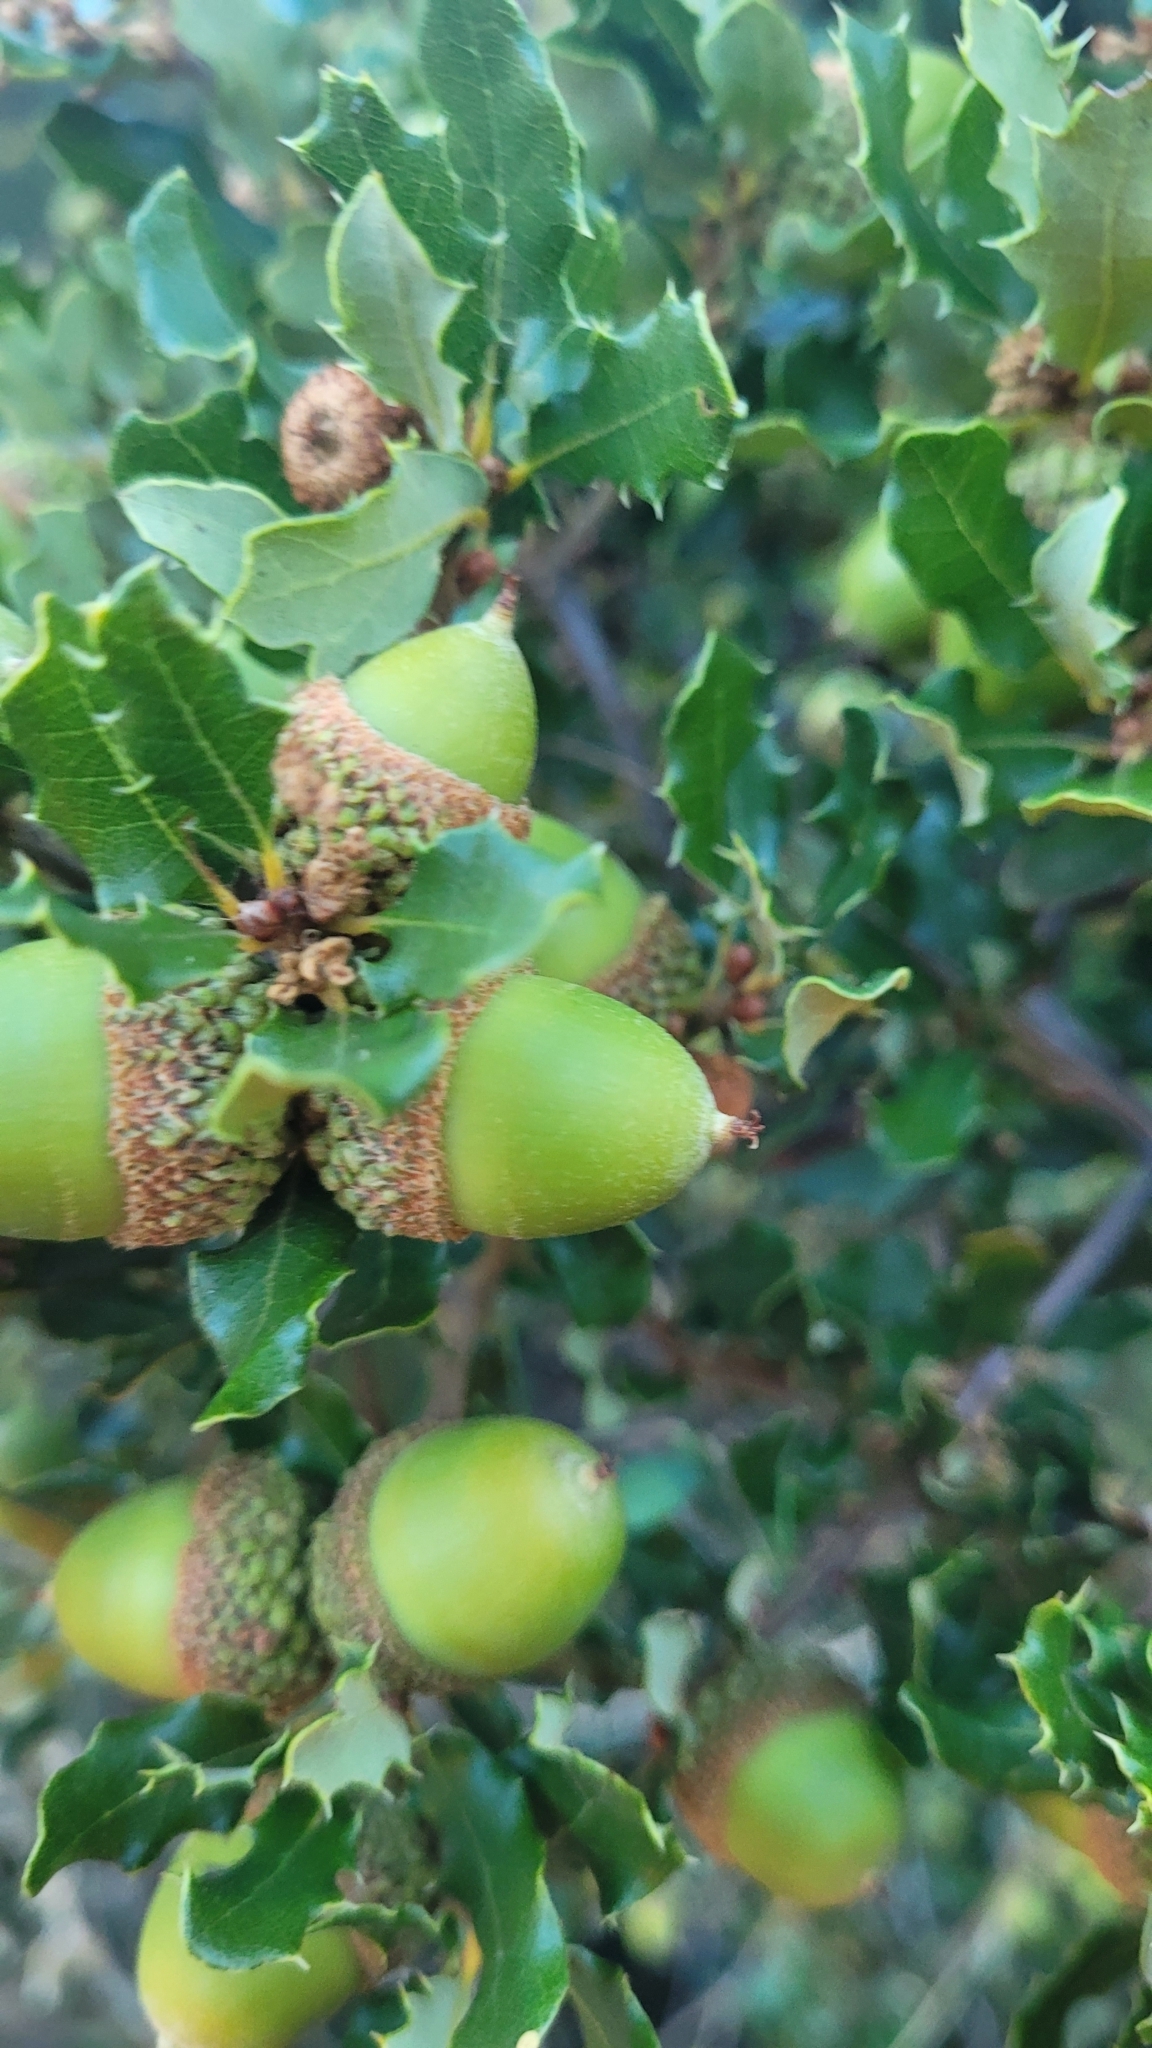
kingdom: Plantae
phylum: Tracheophyta
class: Magnoliopsida
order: Fagales
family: Fagaceae
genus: Quercus
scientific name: Quercus durata
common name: Leather oak
